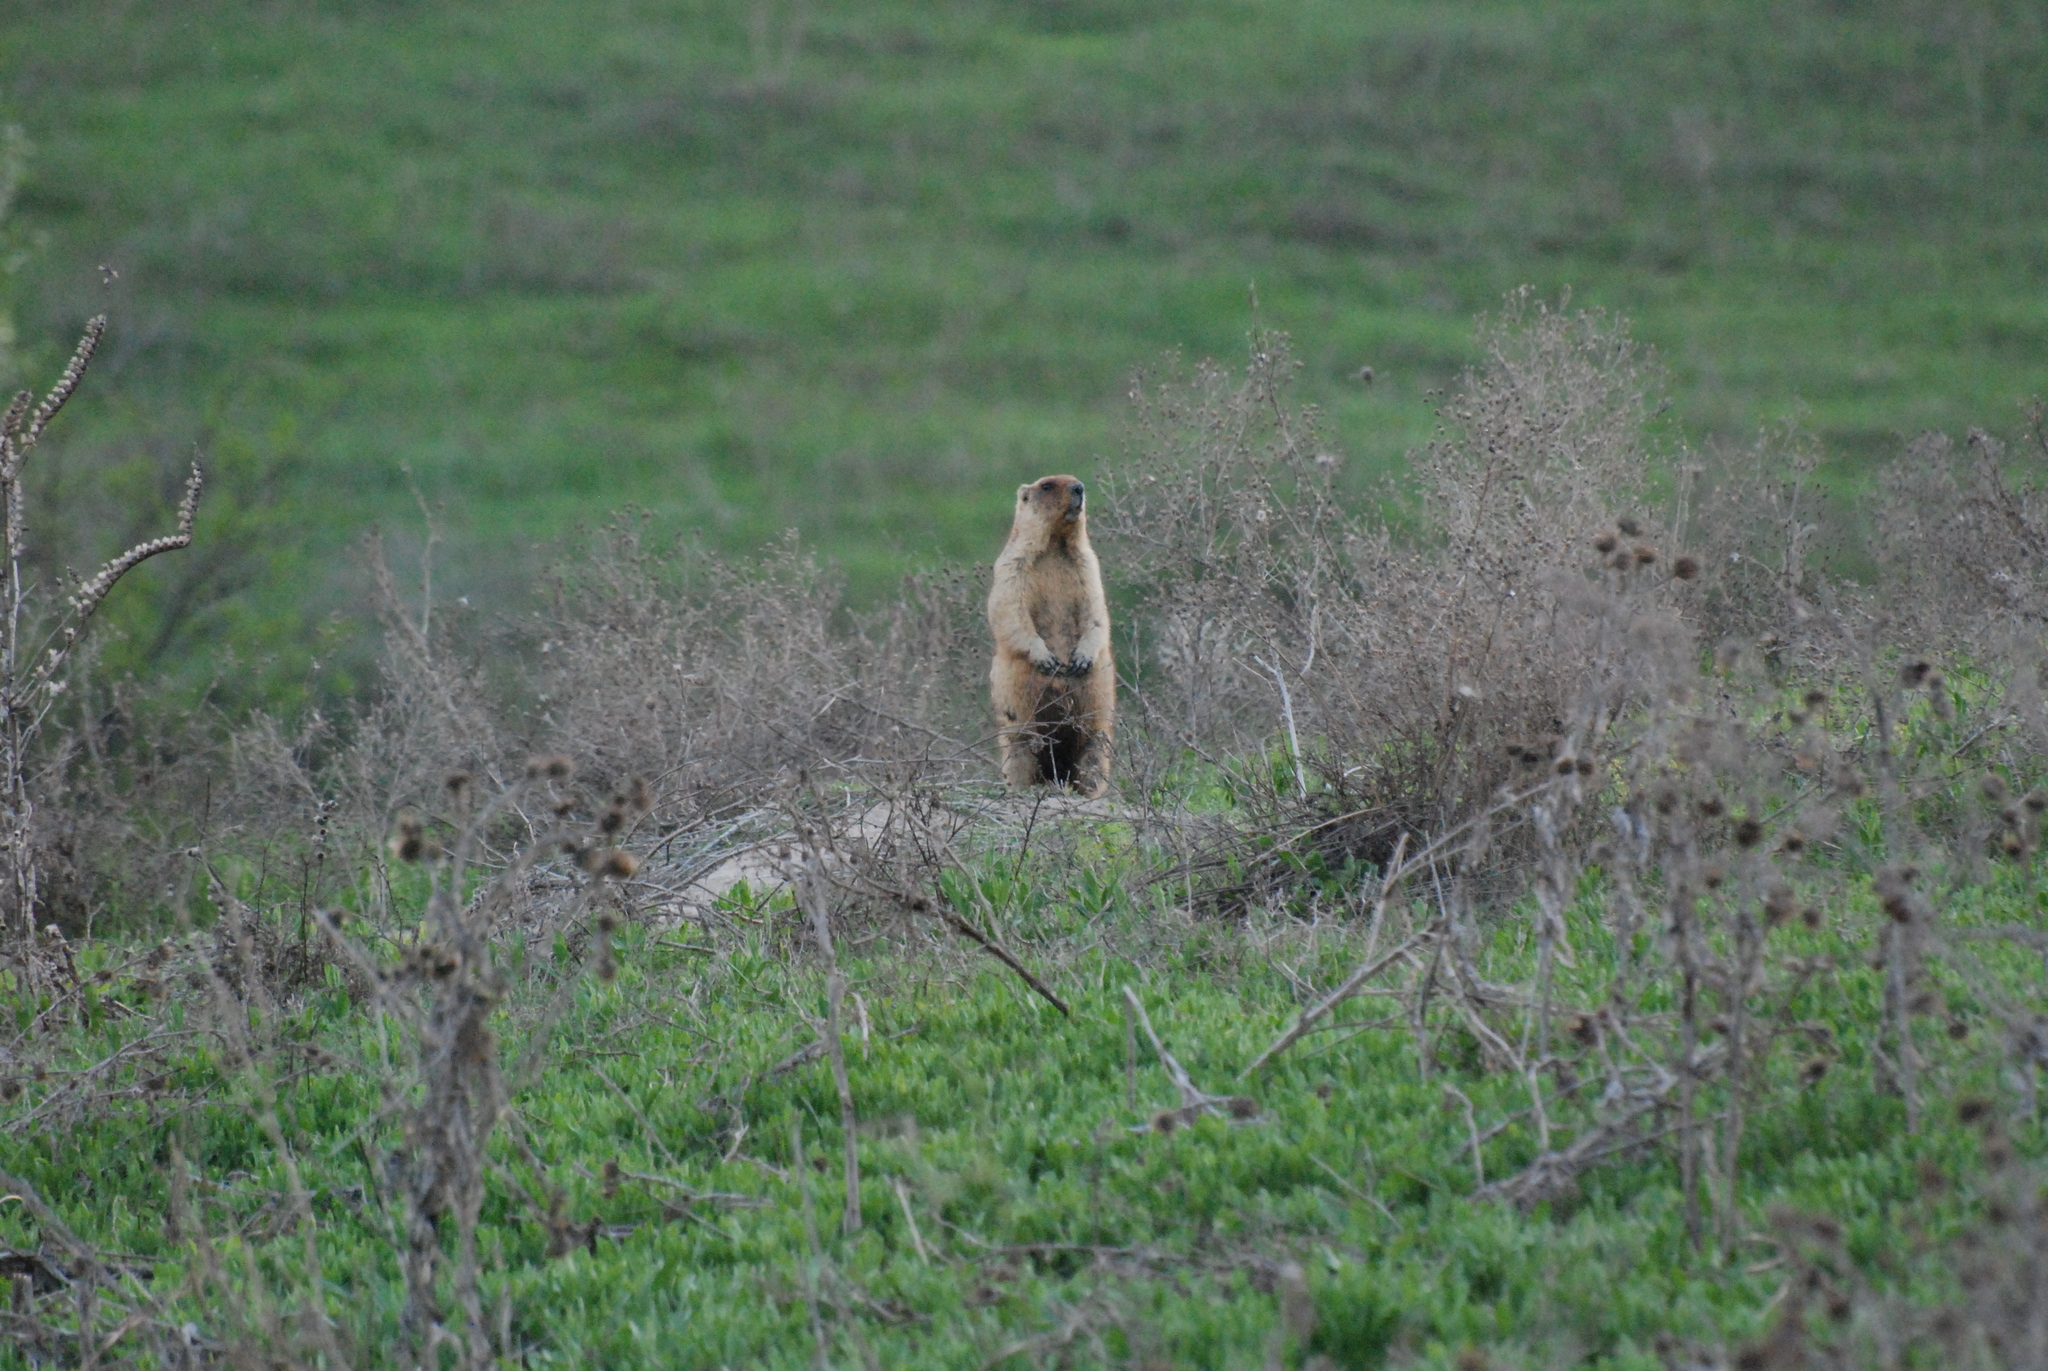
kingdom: Animalia
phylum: Chordata
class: Mammalia
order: Rodentia
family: Sciuridae
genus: Marmota
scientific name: Marmota bobak
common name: Bobak marmot
